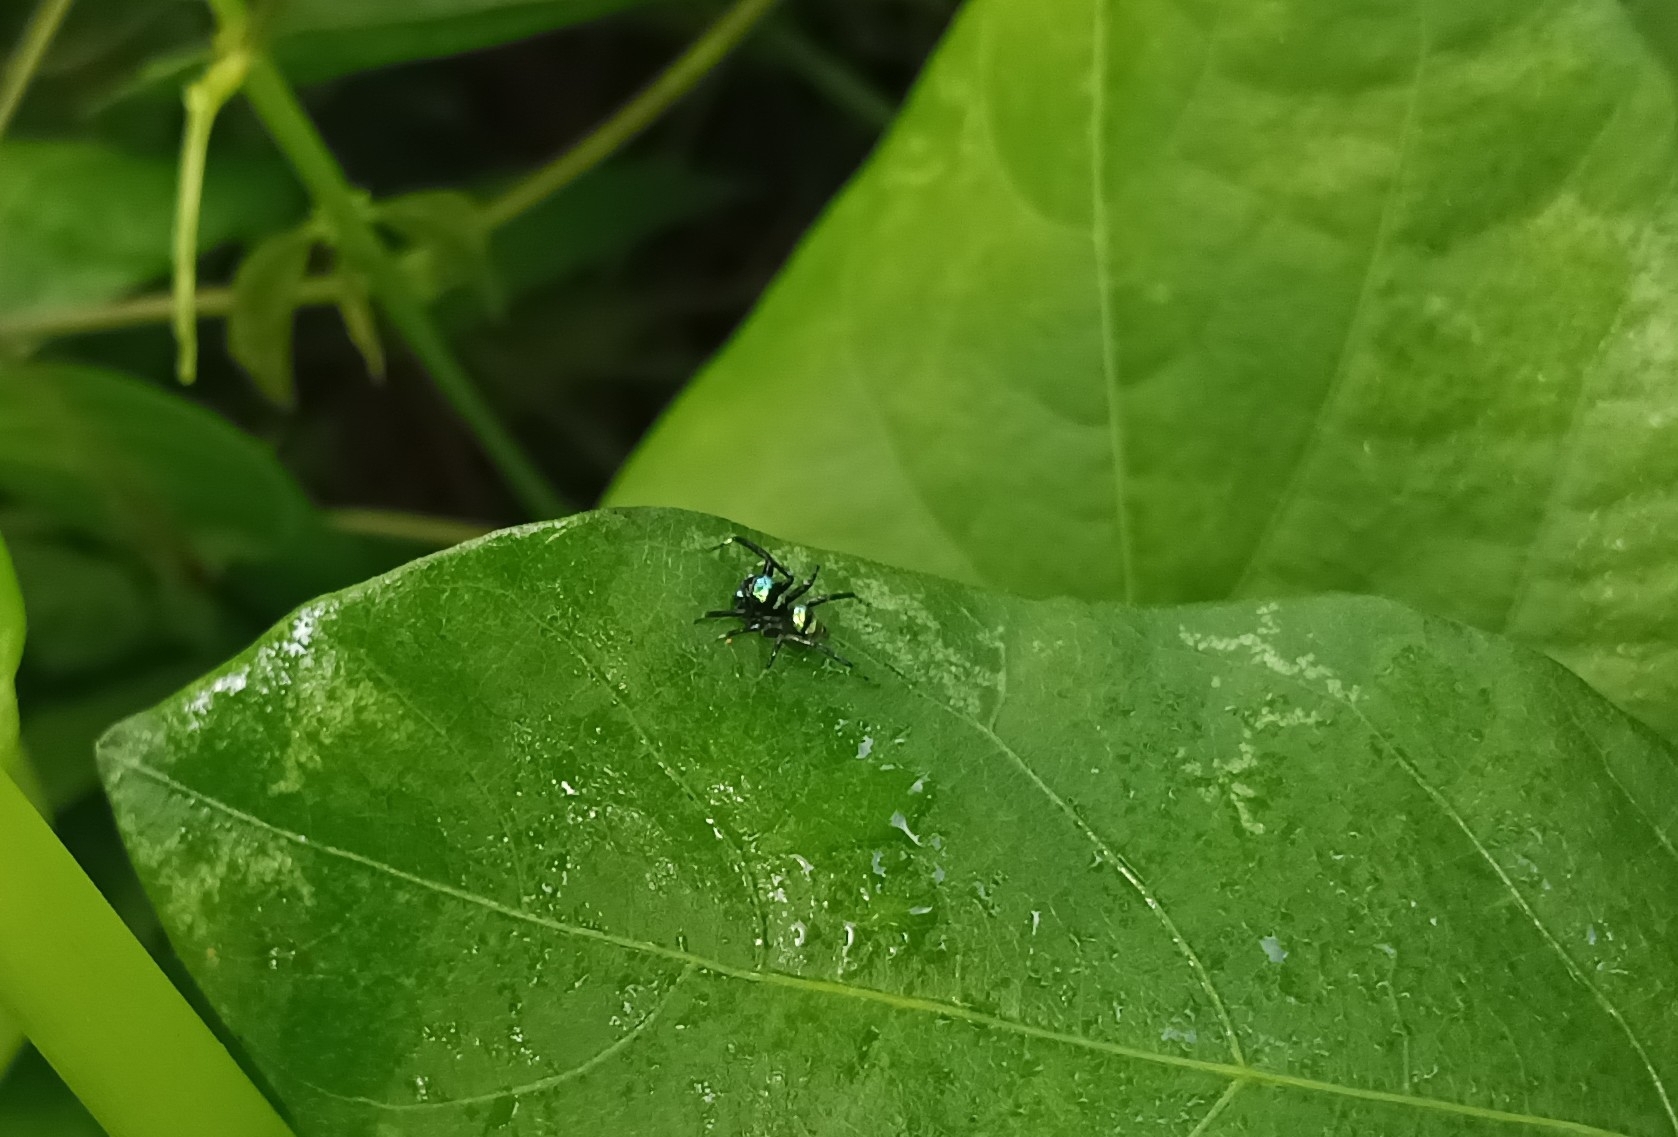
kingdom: Animalia
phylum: Arthropoda
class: Arachnida
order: Araneae
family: Salticidae
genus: Phintella
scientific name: Phintella vittata
